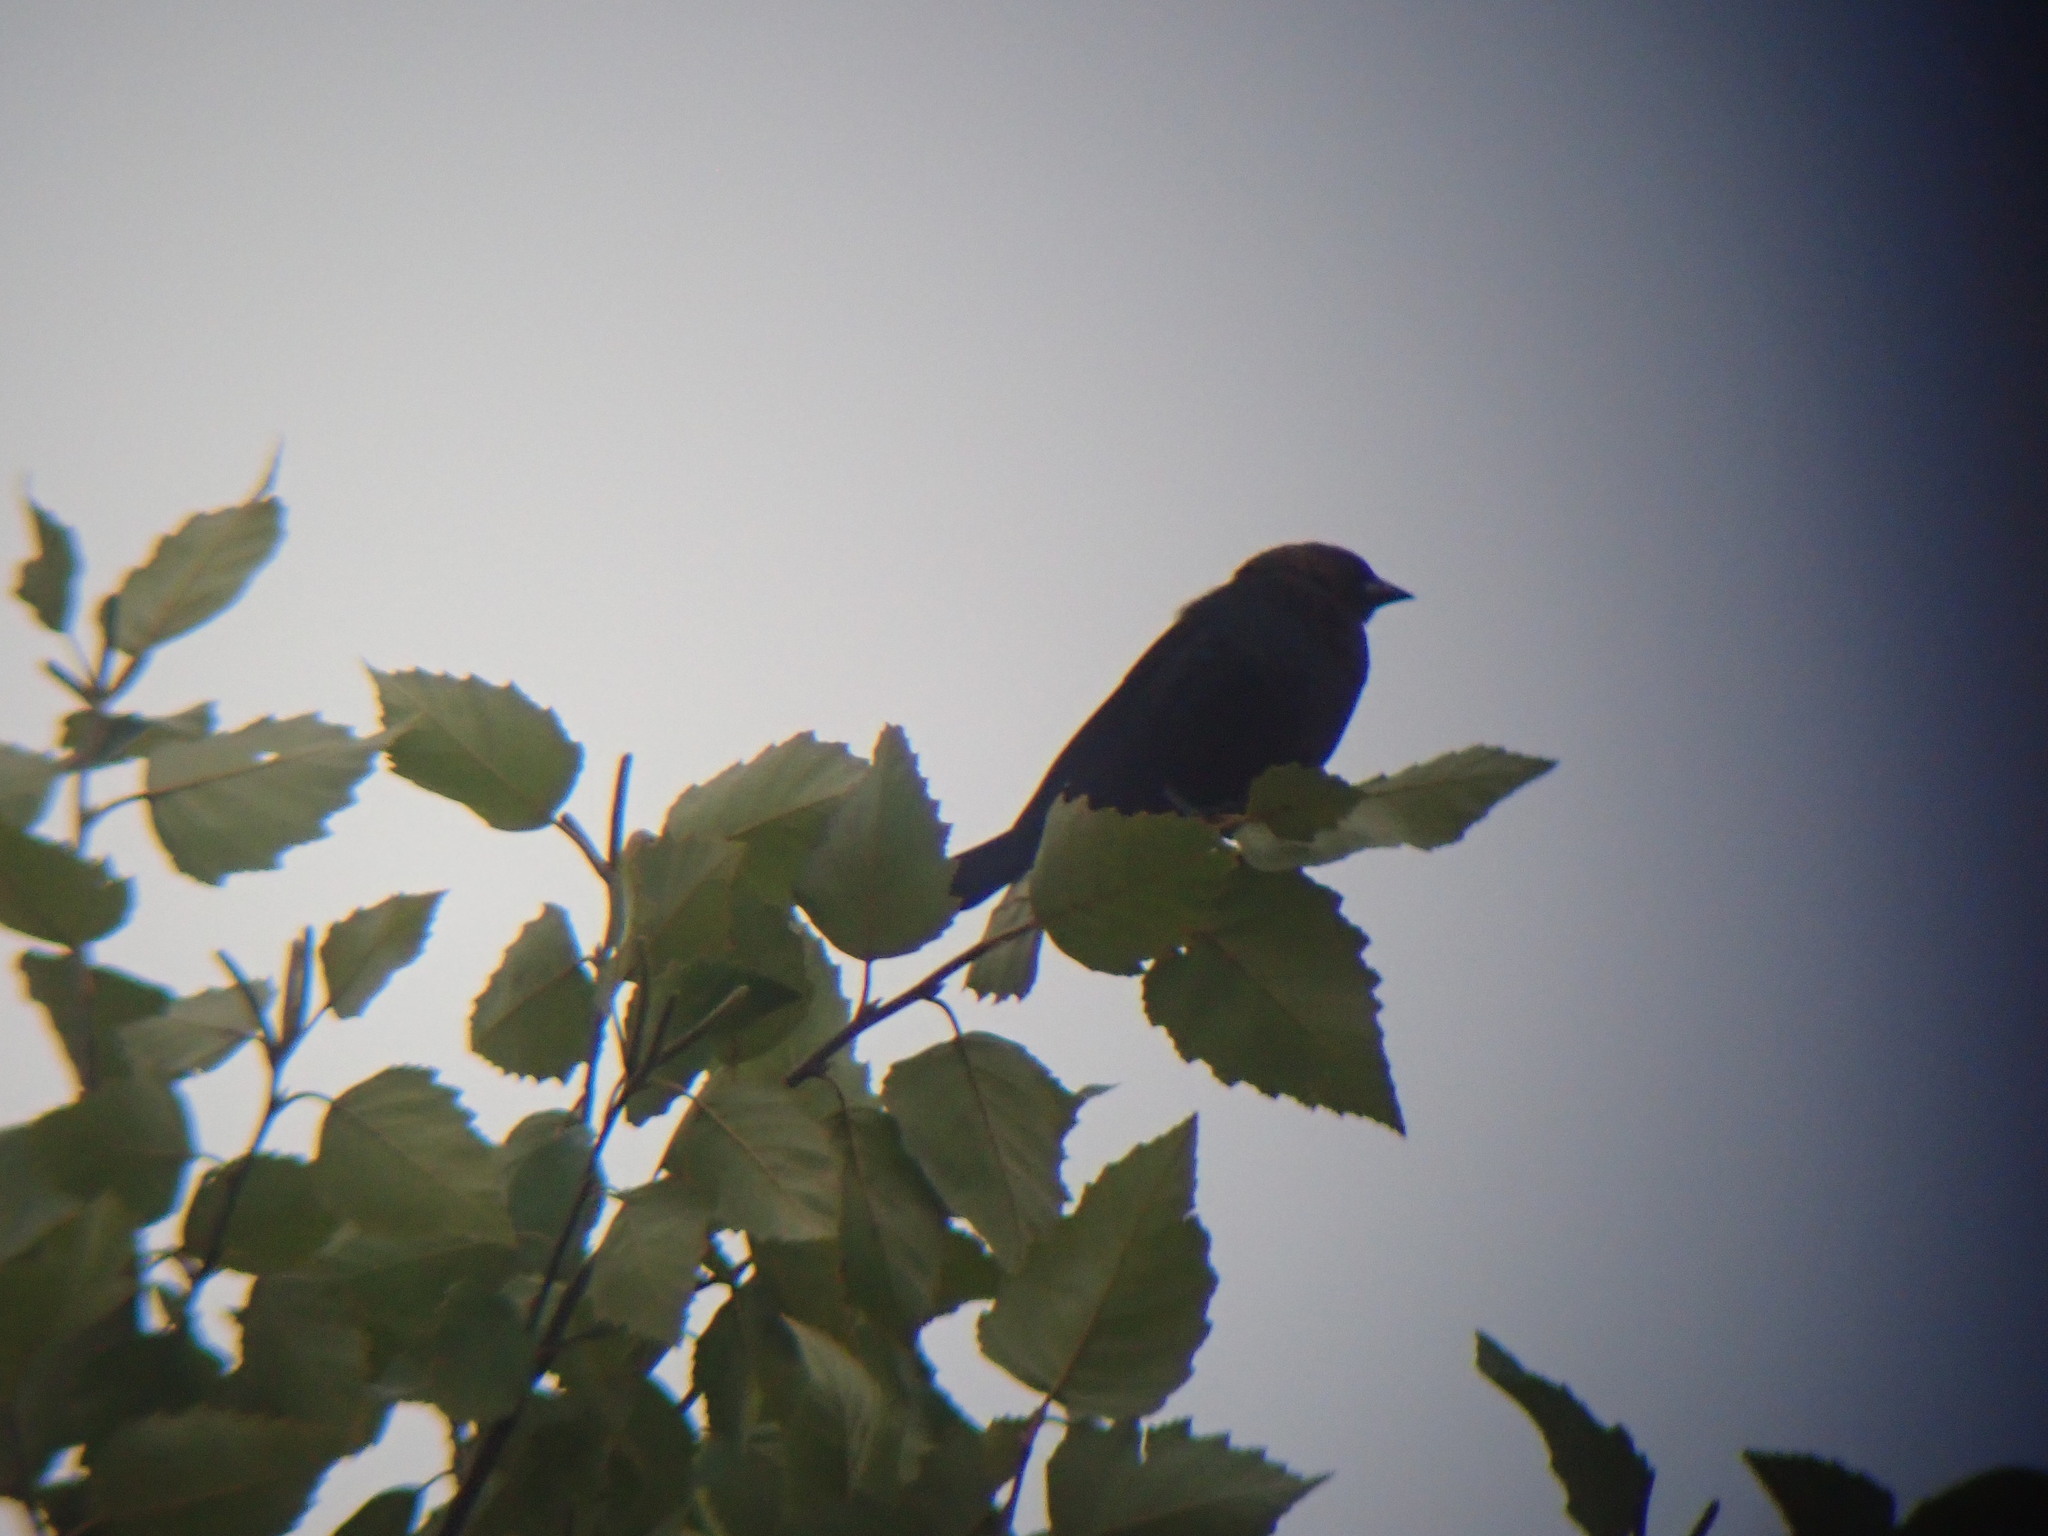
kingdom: Animalia
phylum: Chordata
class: Aves
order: Passeriformes
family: Icteridae
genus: Molothrus
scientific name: Molothrus ater
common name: Brown-headed cowbird
